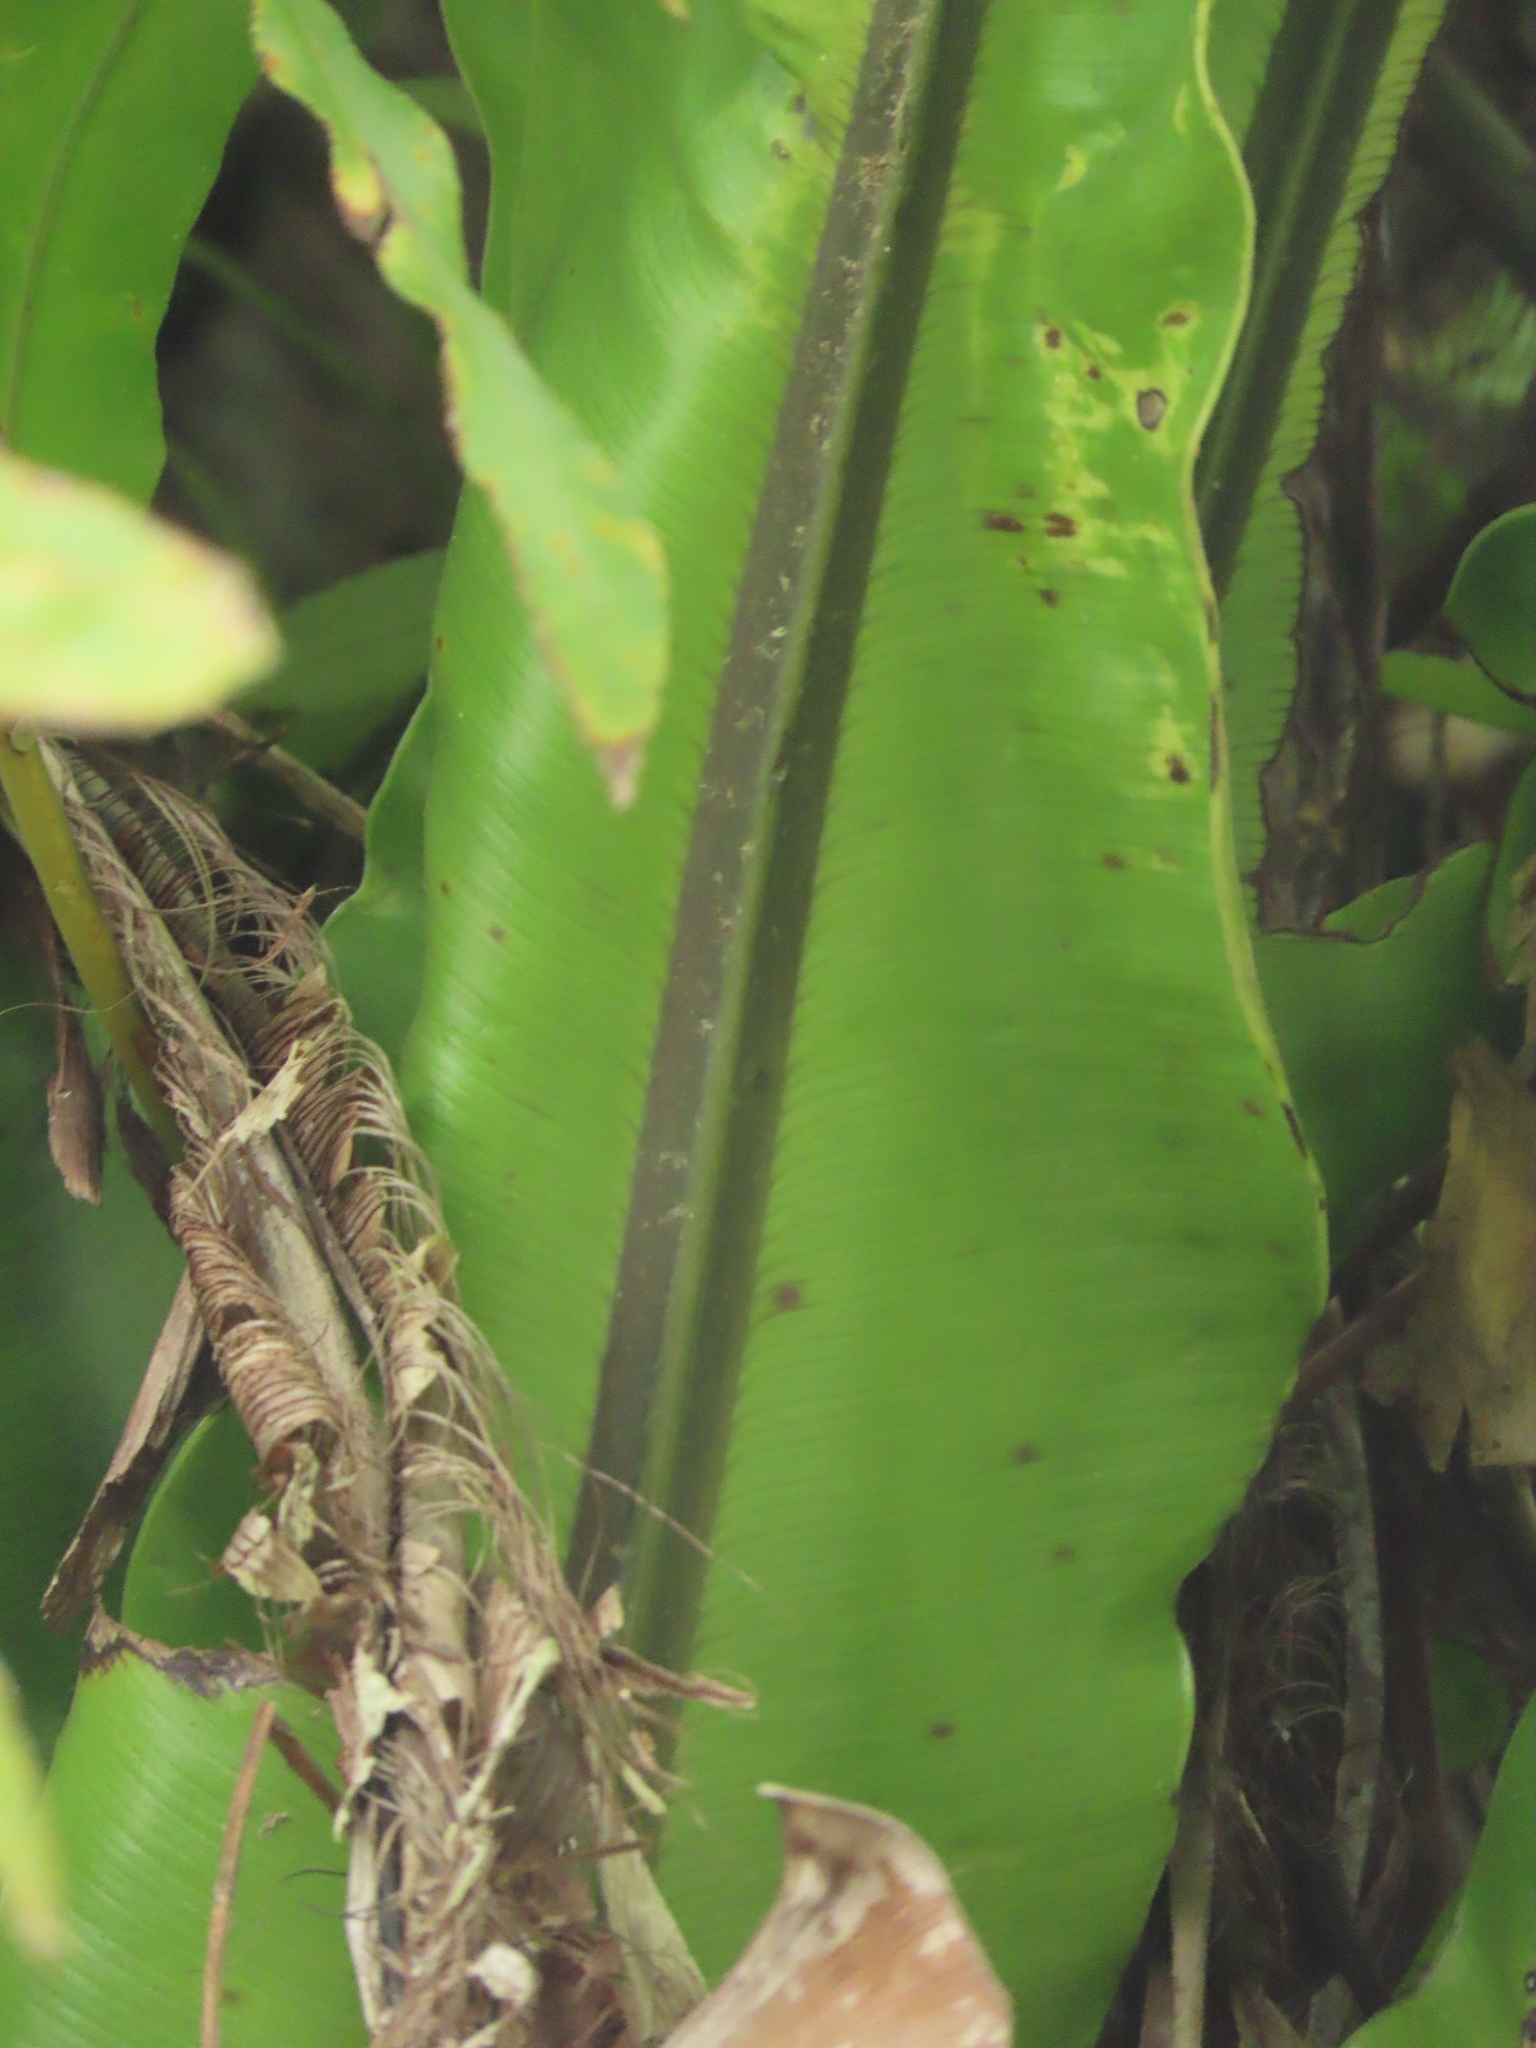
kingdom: Plantae
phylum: Tracheophyta
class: Polypodiopsida
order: Polypodiales
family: Aspleniaceae
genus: Asplenium
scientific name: Asplenium setoi
